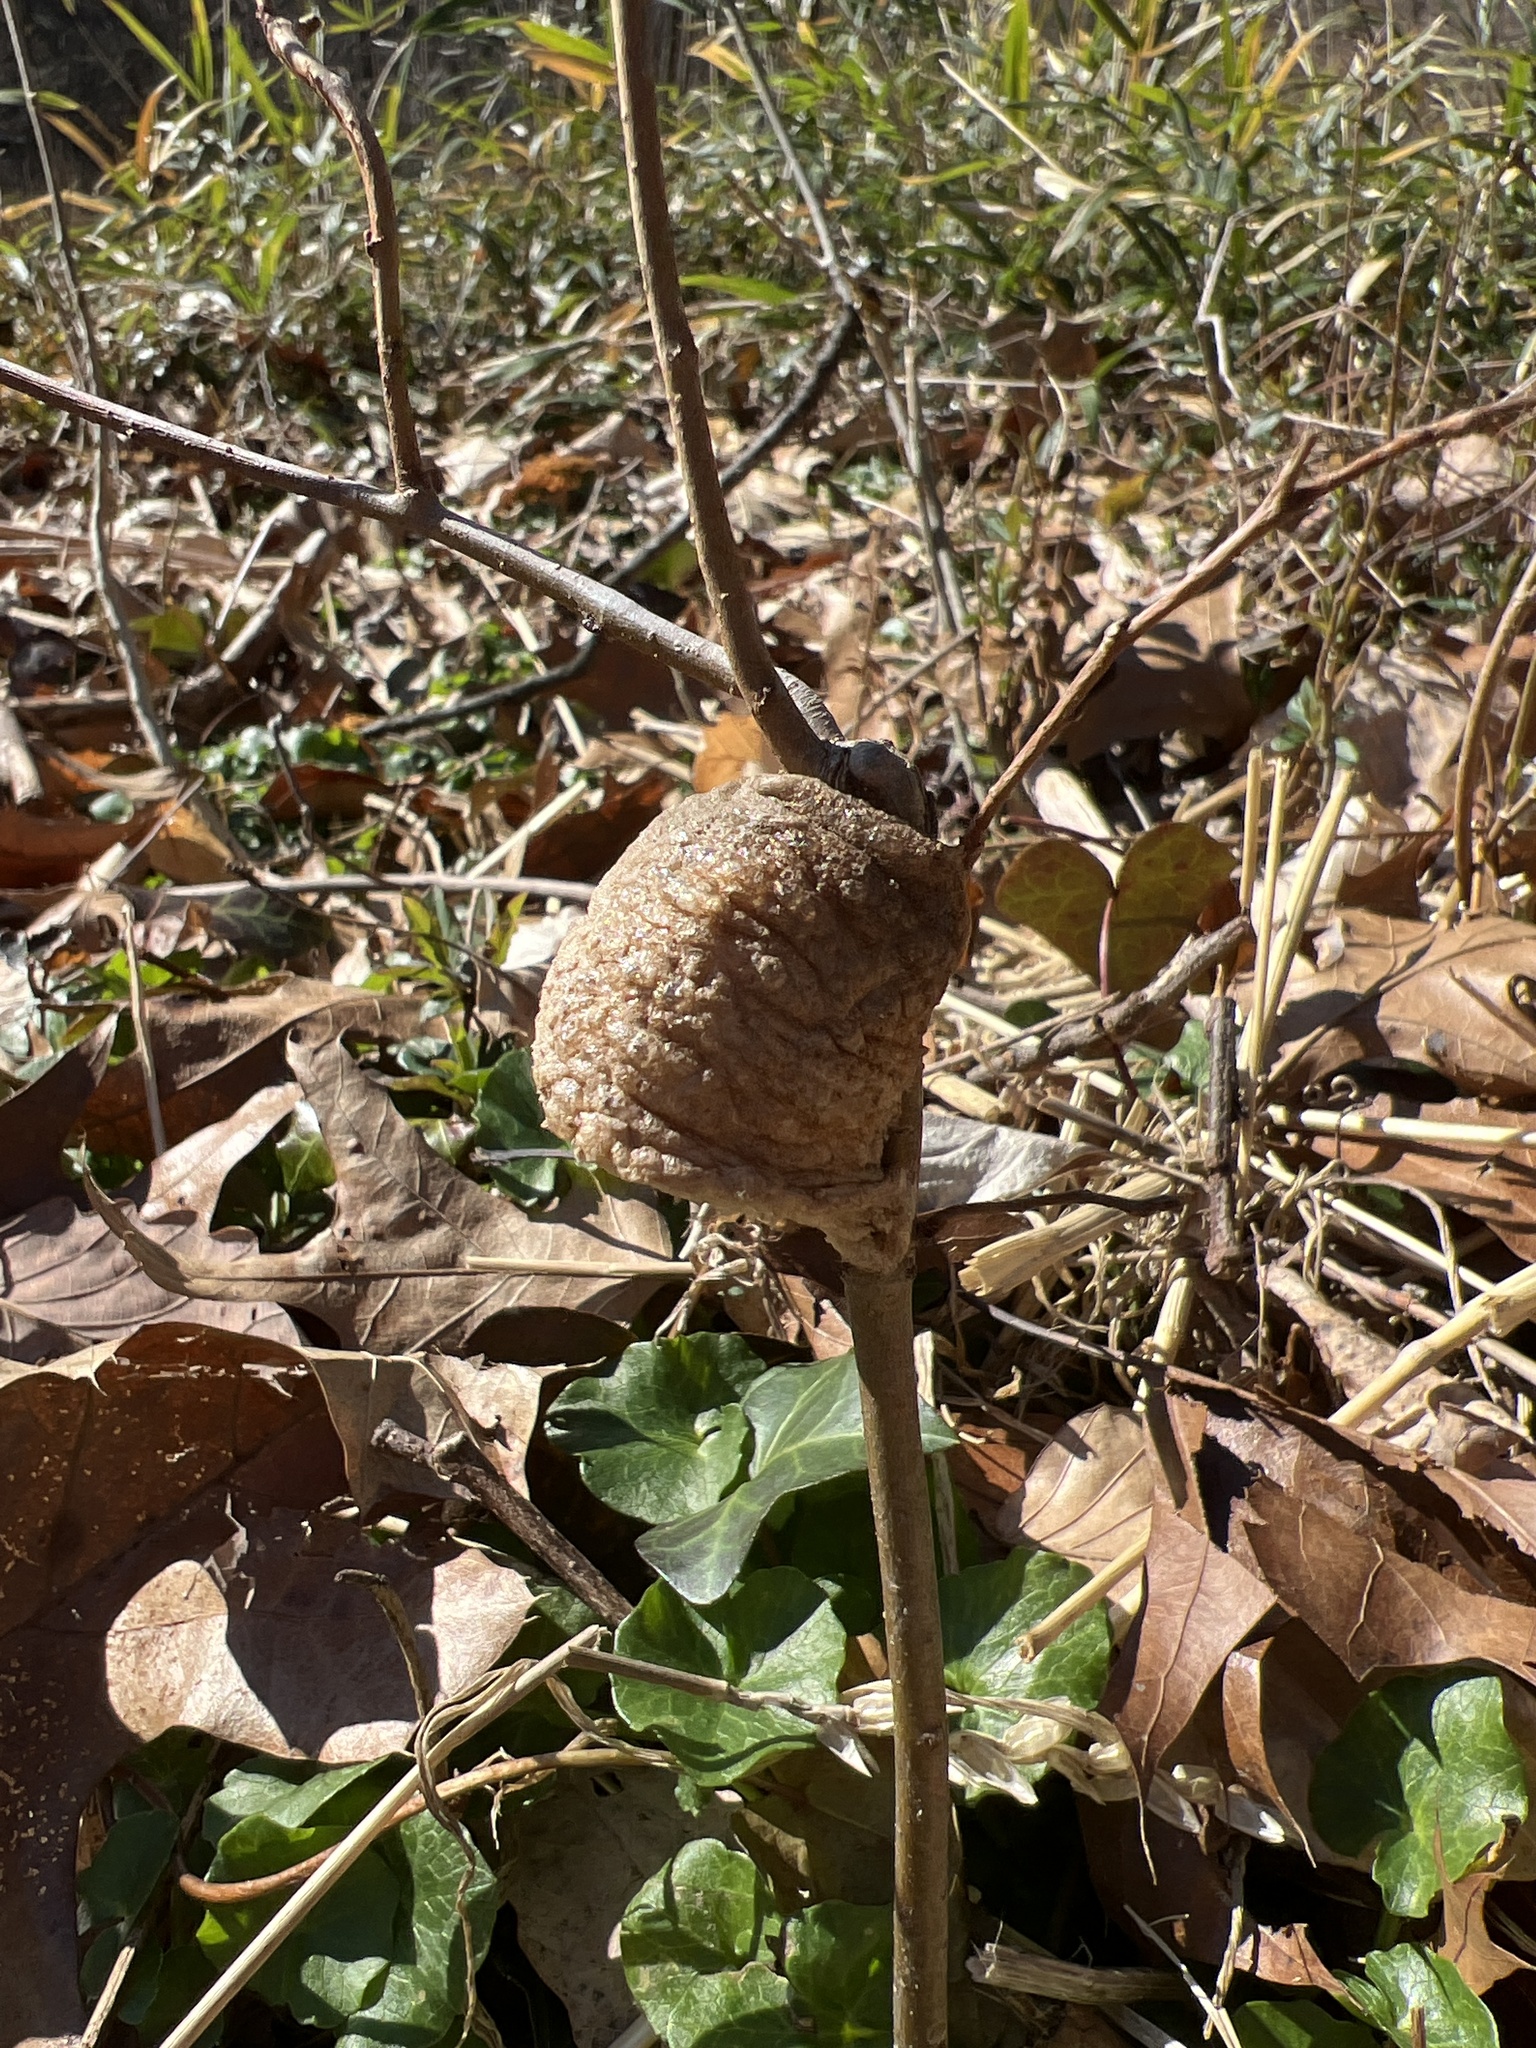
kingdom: Animalia
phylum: Arthropoda
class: Insecta
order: Mantodea
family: Mantidae
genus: Tenodera
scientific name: Tenodera sinensis
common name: Chinese mantis
